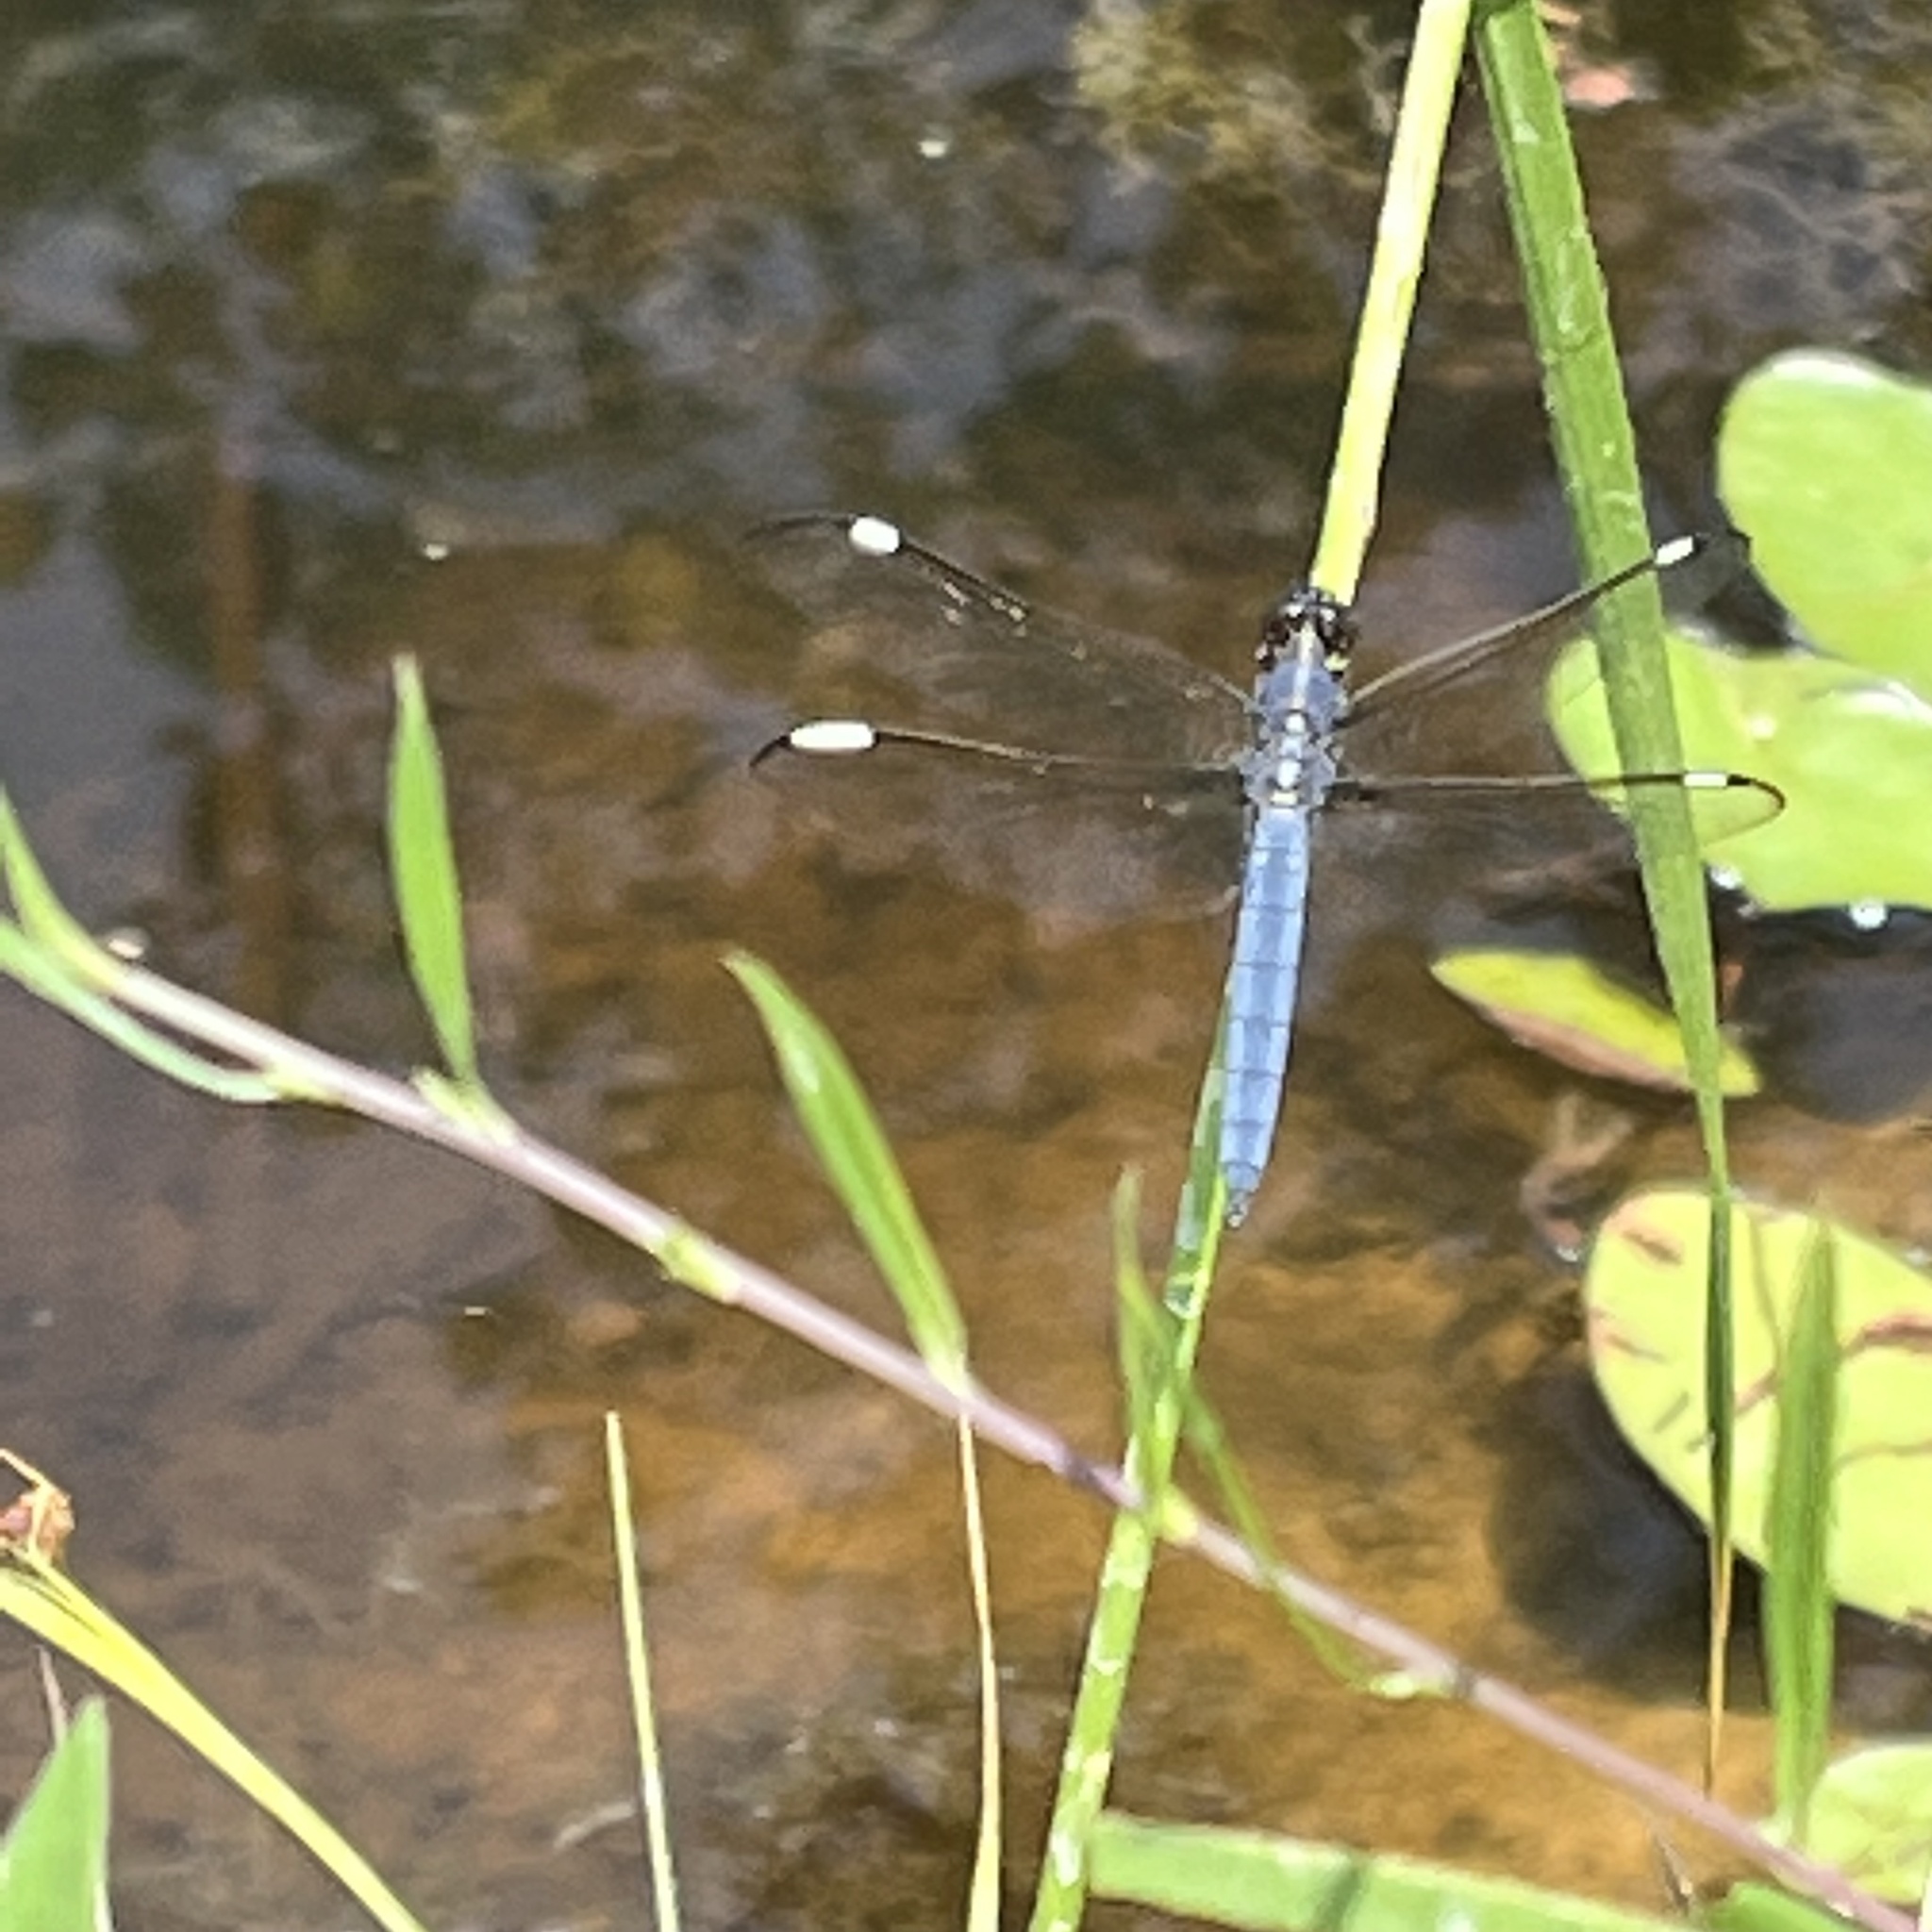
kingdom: Animalia
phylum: Arthropoda
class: Insecta
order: Odonata
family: Libellulidae
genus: Libellula
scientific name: Libellula cyanea
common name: Spangled skimmer
